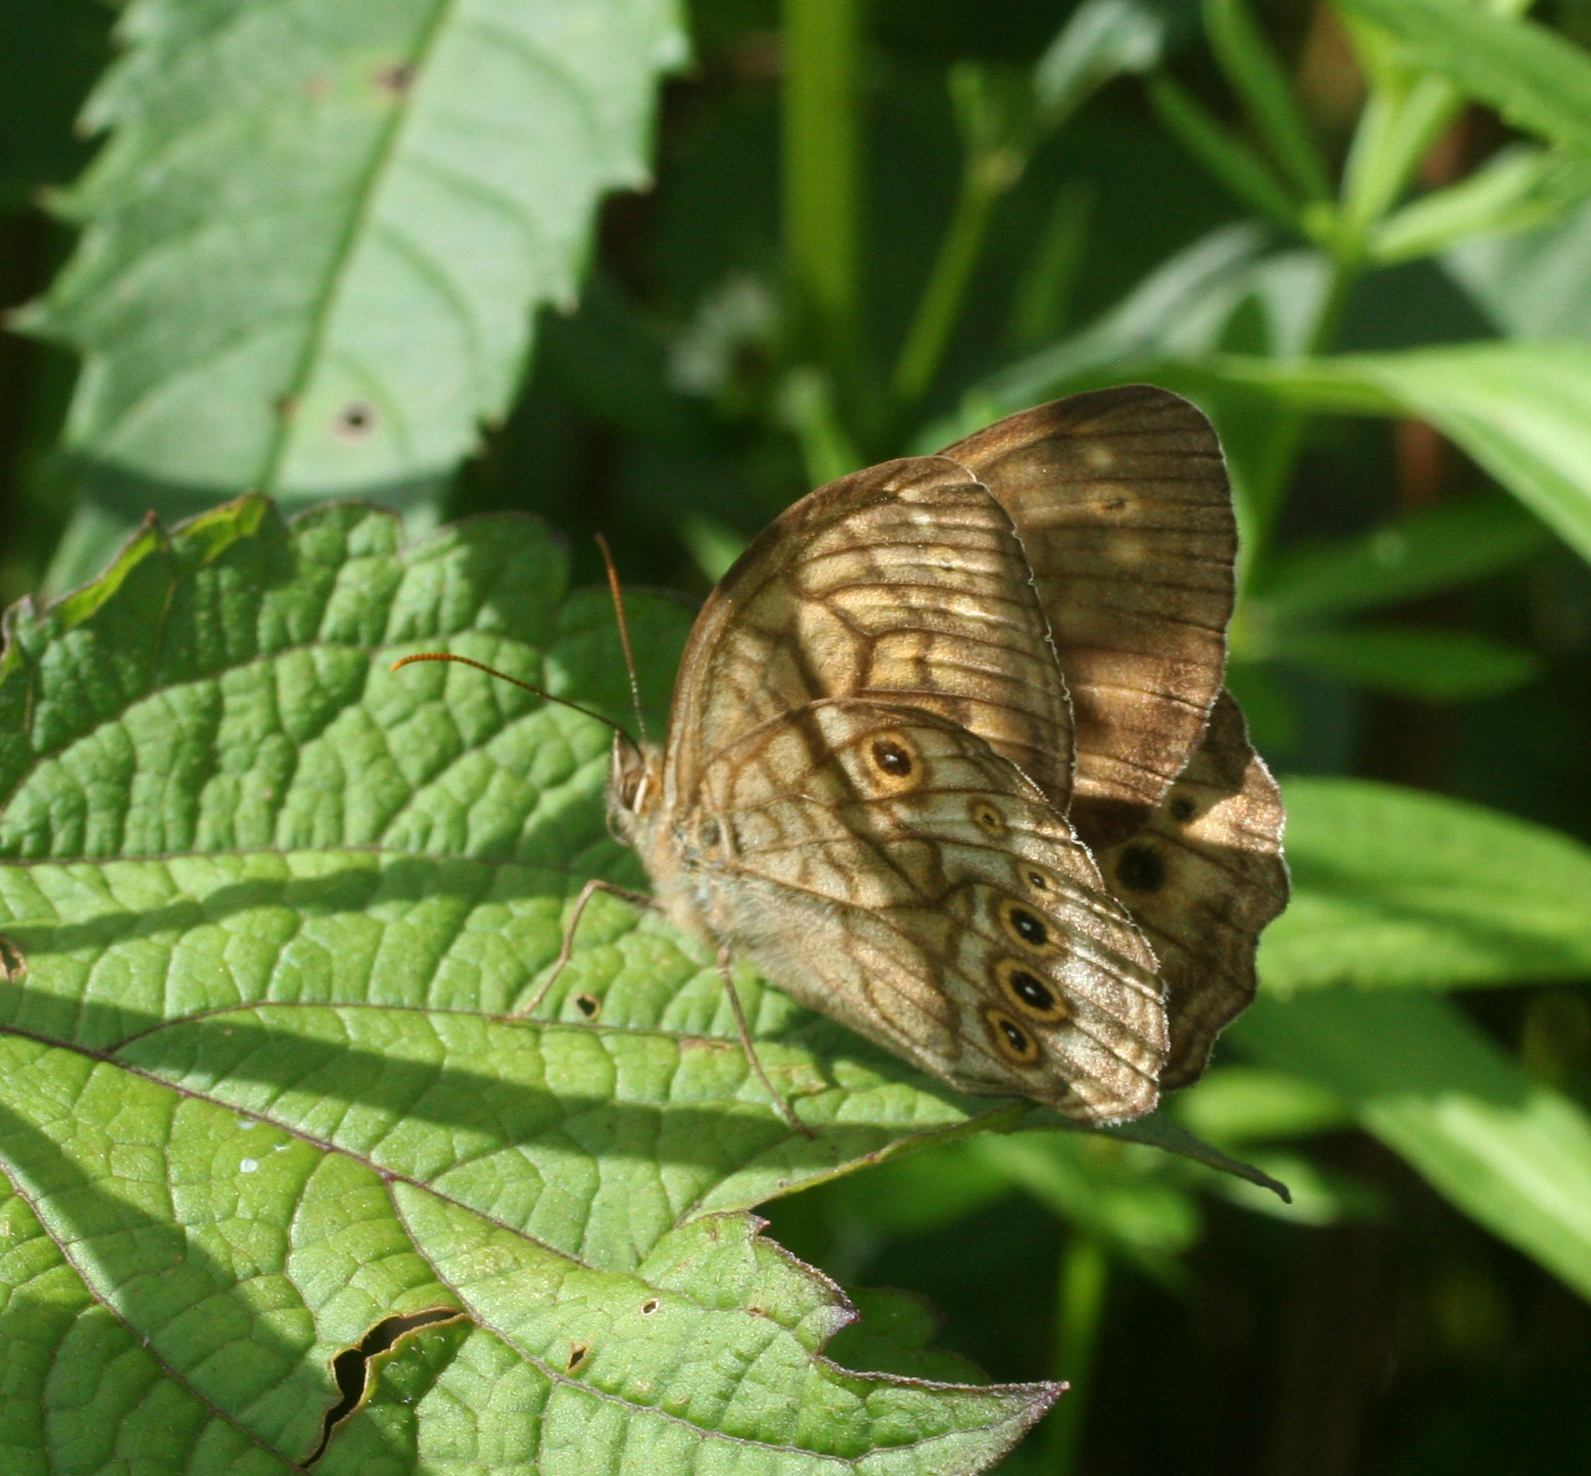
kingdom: Animalia
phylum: Arthropoda
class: Insecta
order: Lepidoptera
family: Nymphalidae
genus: Kirinia
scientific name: Kirinia
